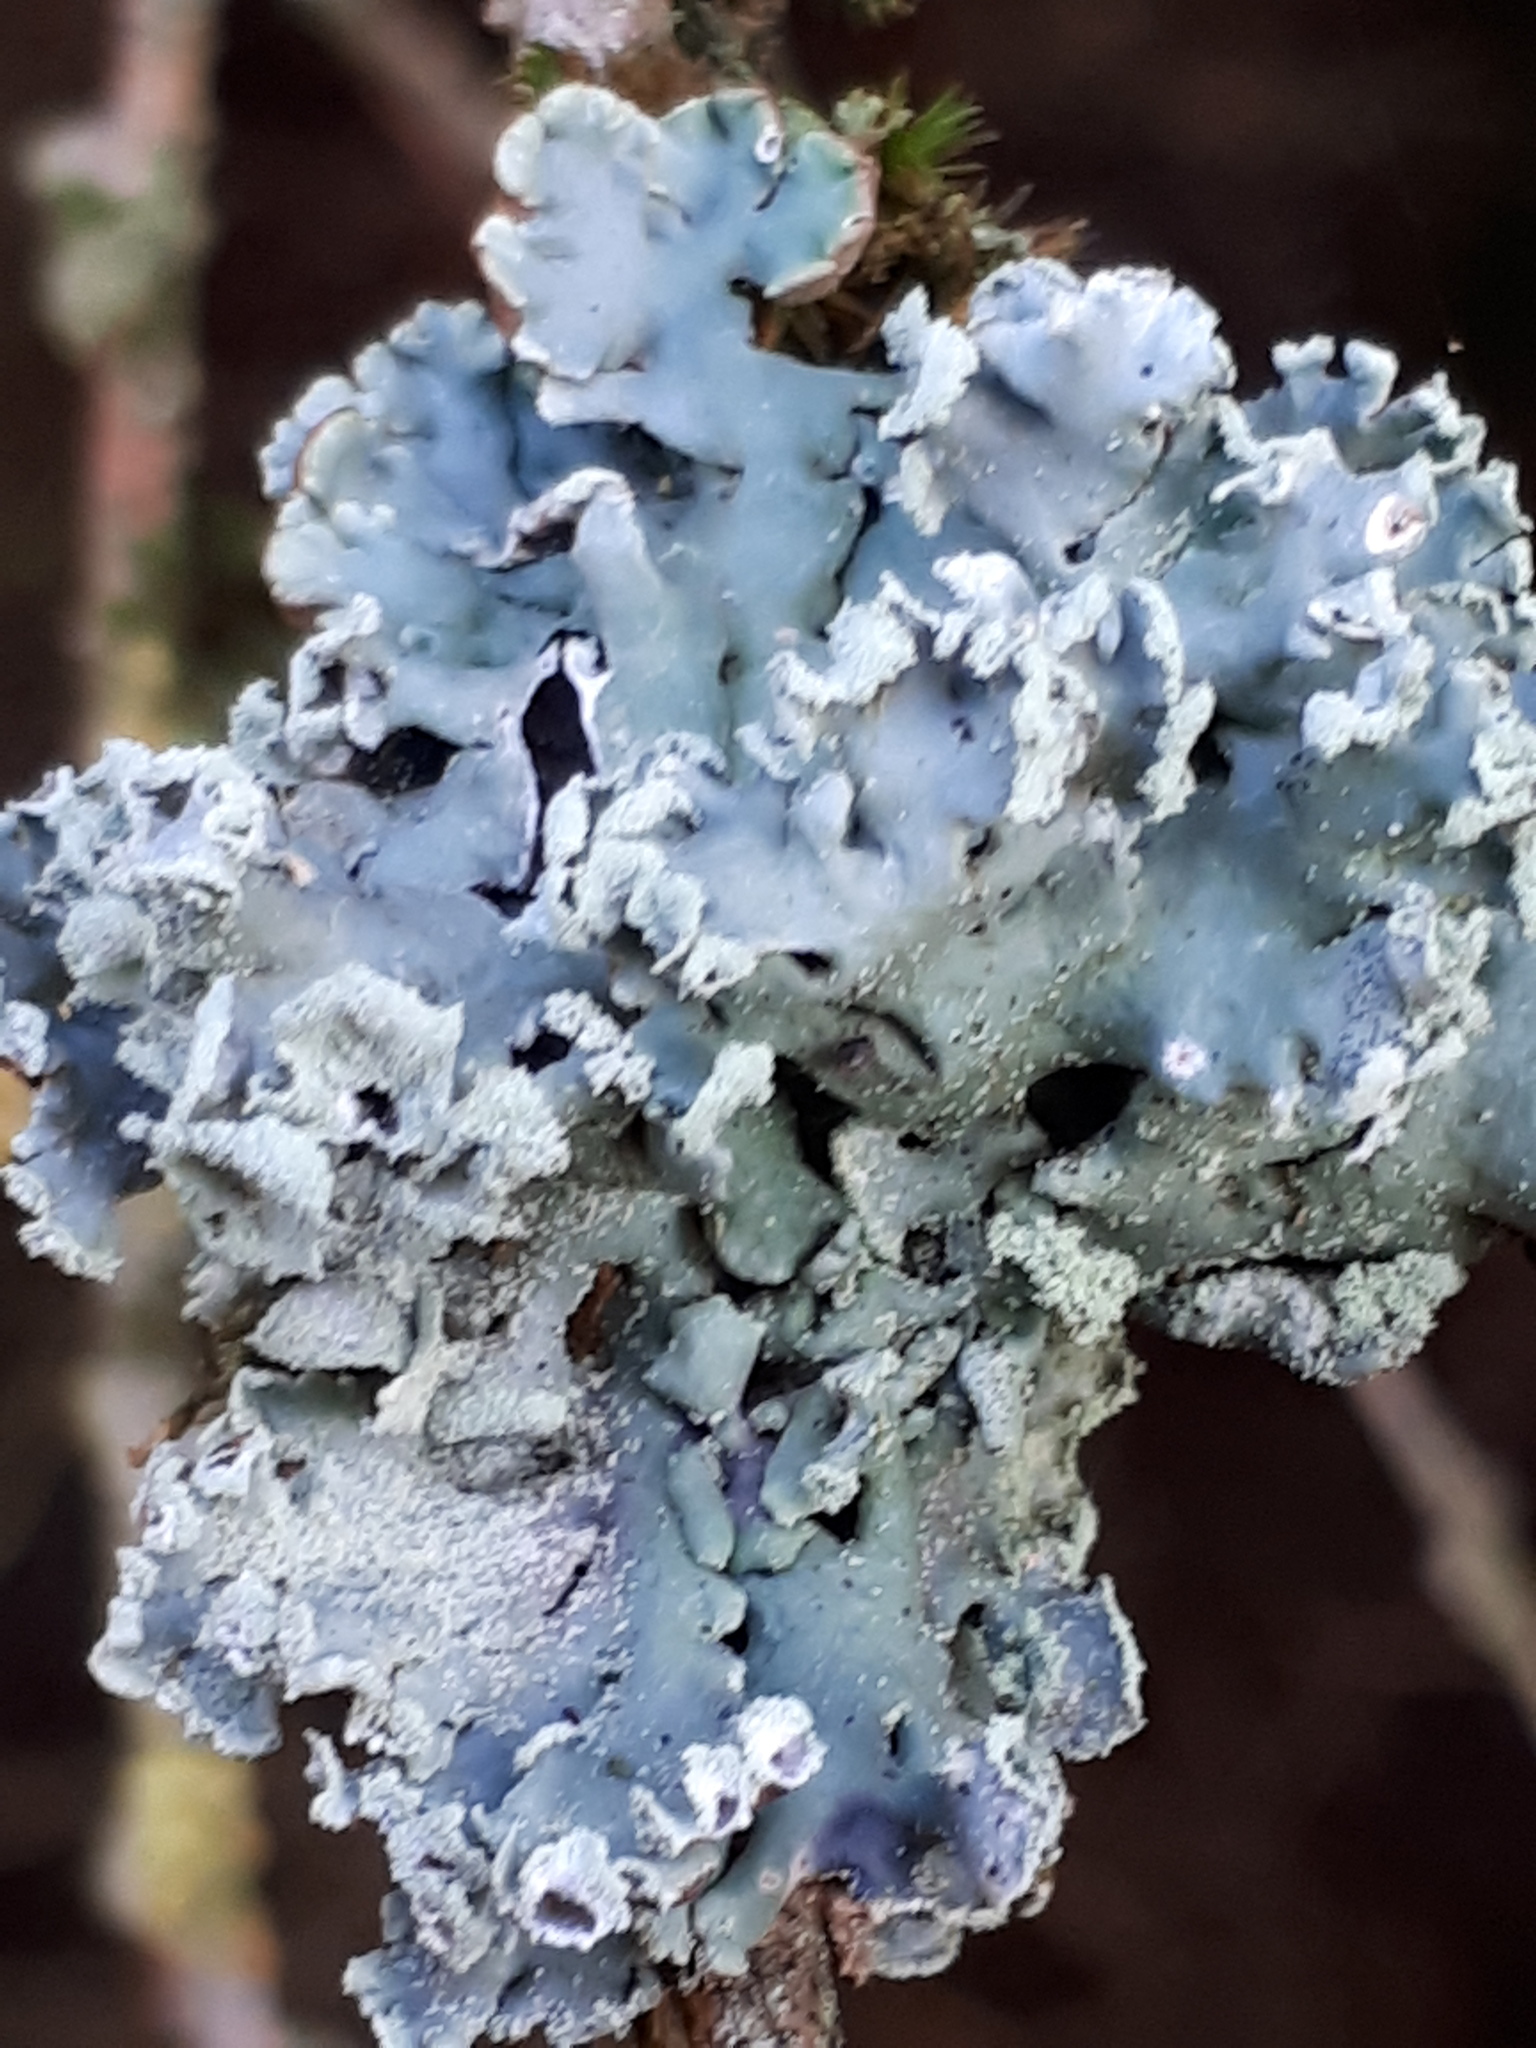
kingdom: Fungi
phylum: Ascomycota
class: Lecanoromycetes
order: Lecanorales
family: Parmeliaceae
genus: Hypogymnia
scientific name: Hypogymnia physodes
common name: Dark crottle
